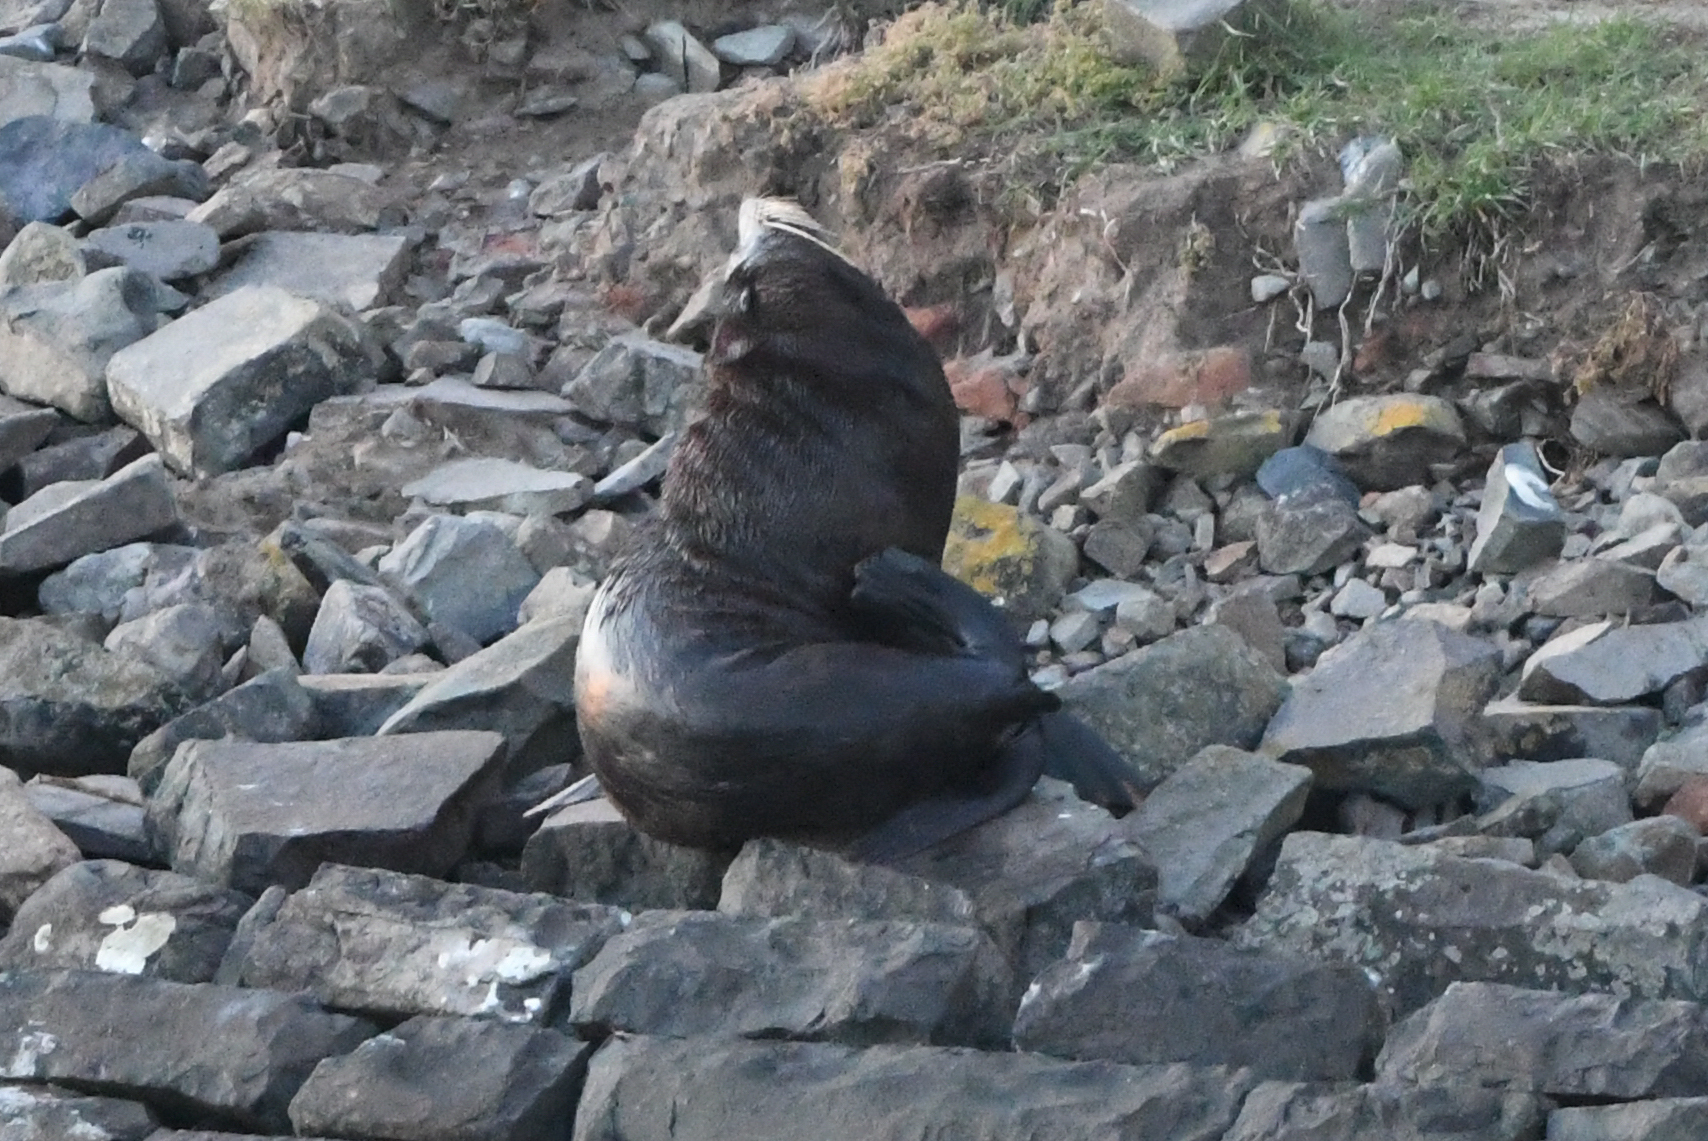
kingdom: Animalia
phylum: Chordata
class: Mammalia
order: Carnivora
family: Otariidae
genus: Arctocephalus
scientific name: Arctocephalus forsteri
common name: New zealand fur seal
